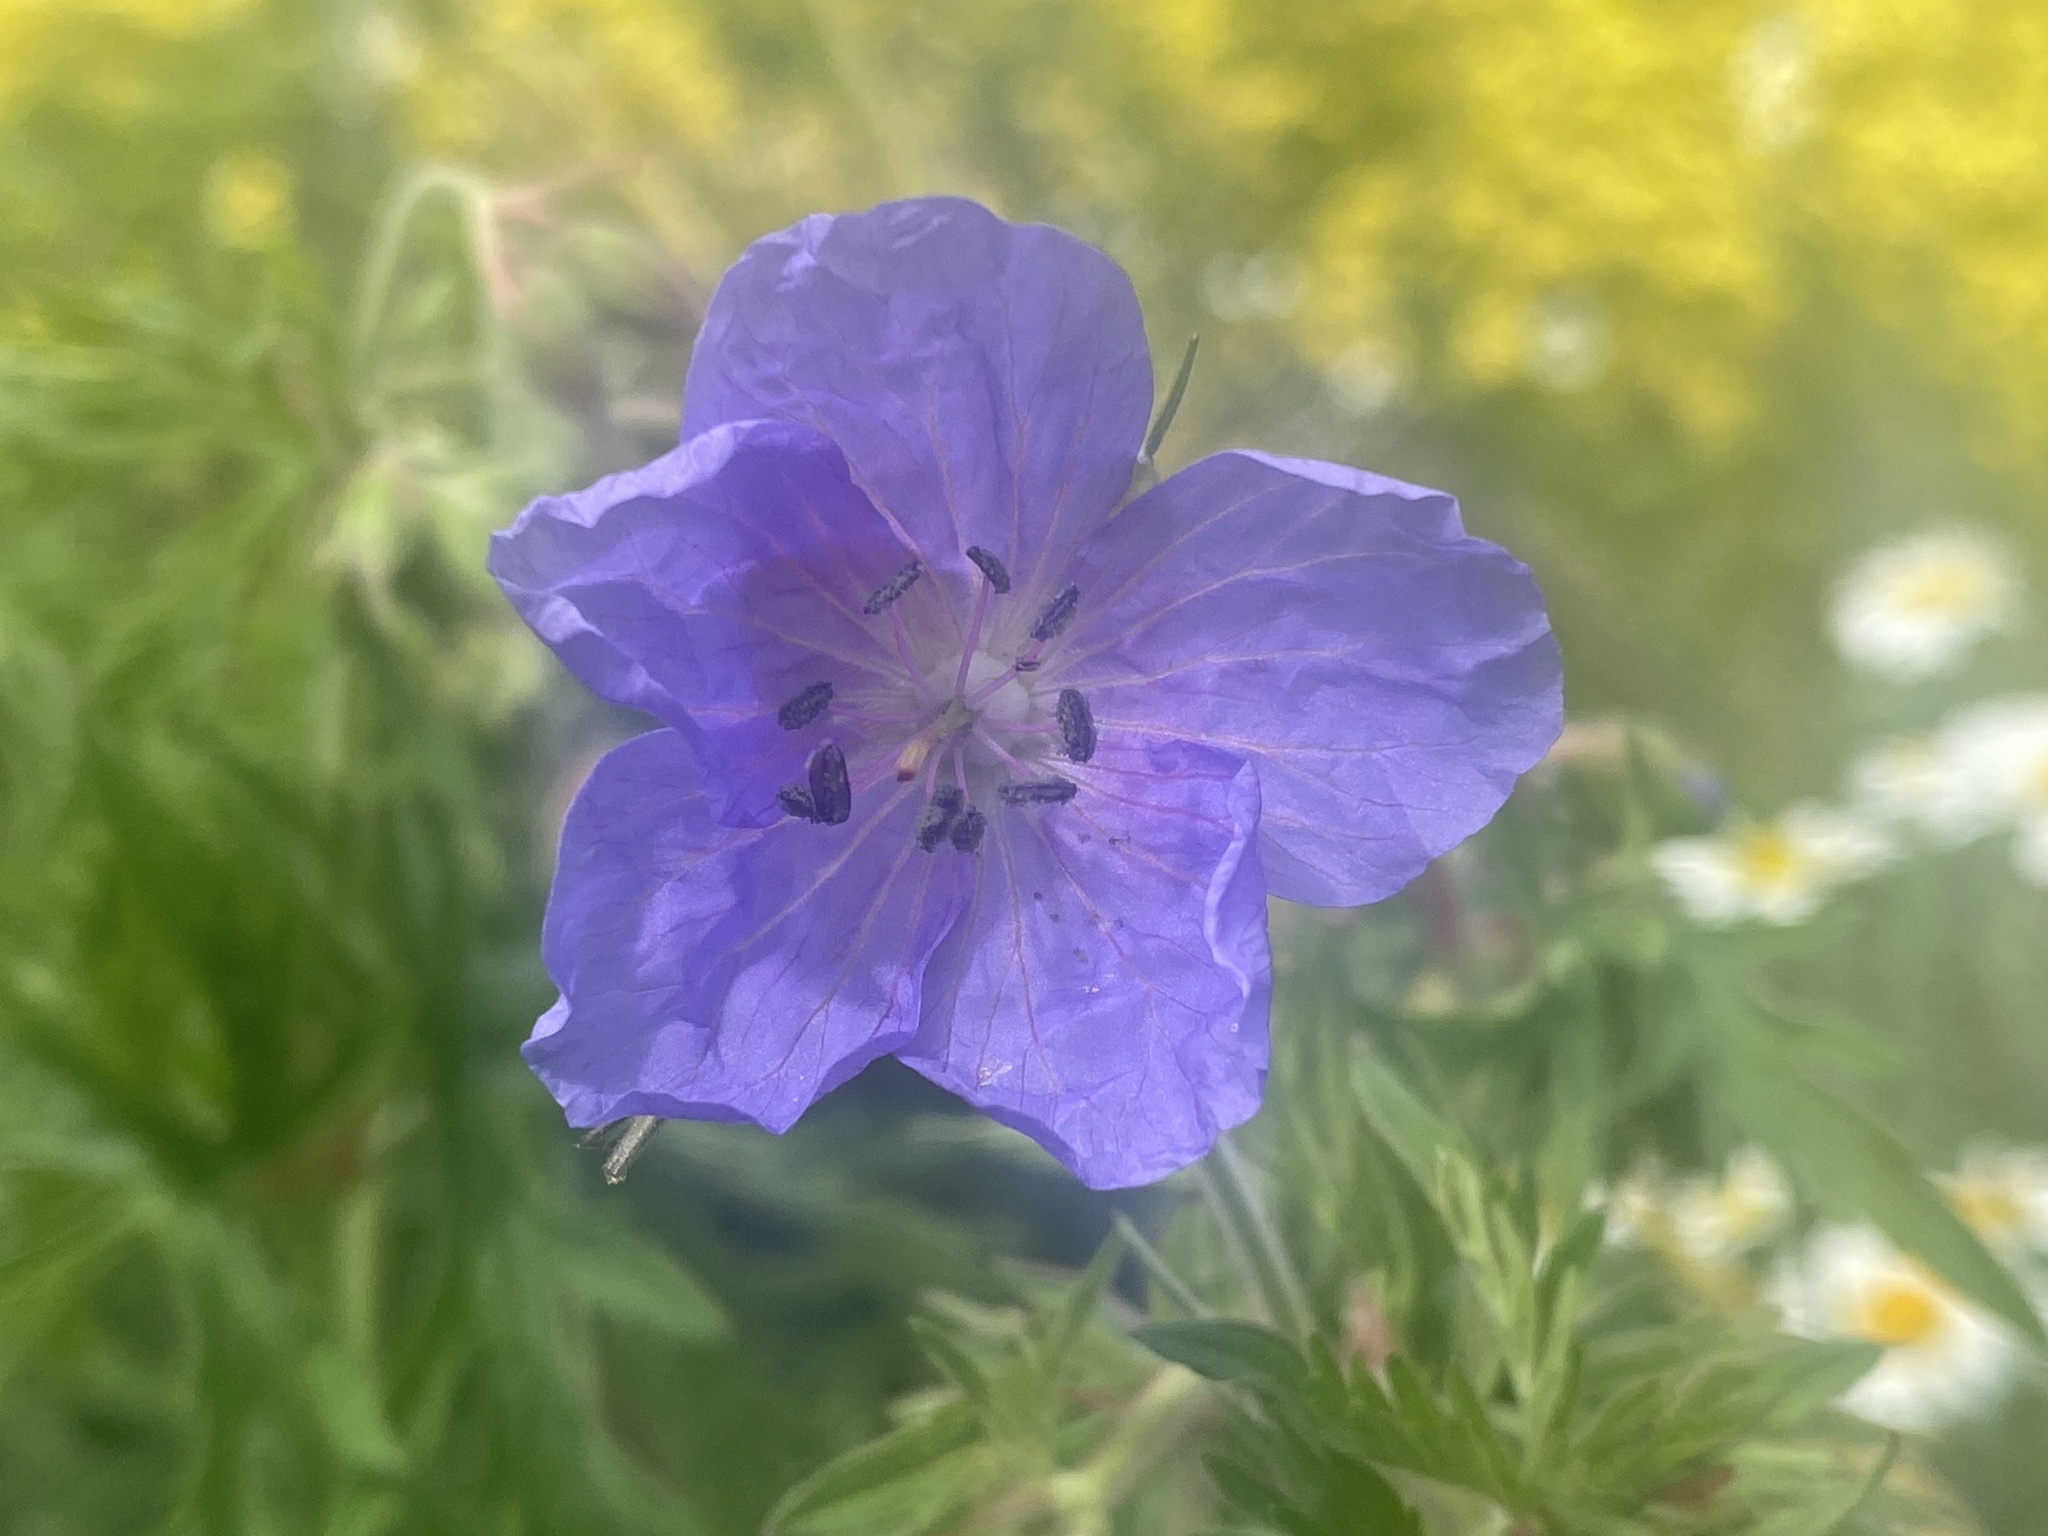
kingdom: Plantae
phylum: Tracheophyta
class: Magnoliopsida
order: Geraniales
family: Geraniaceae
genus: Geranium
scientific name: Geranium pratense
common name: Meadow crane's-bill
